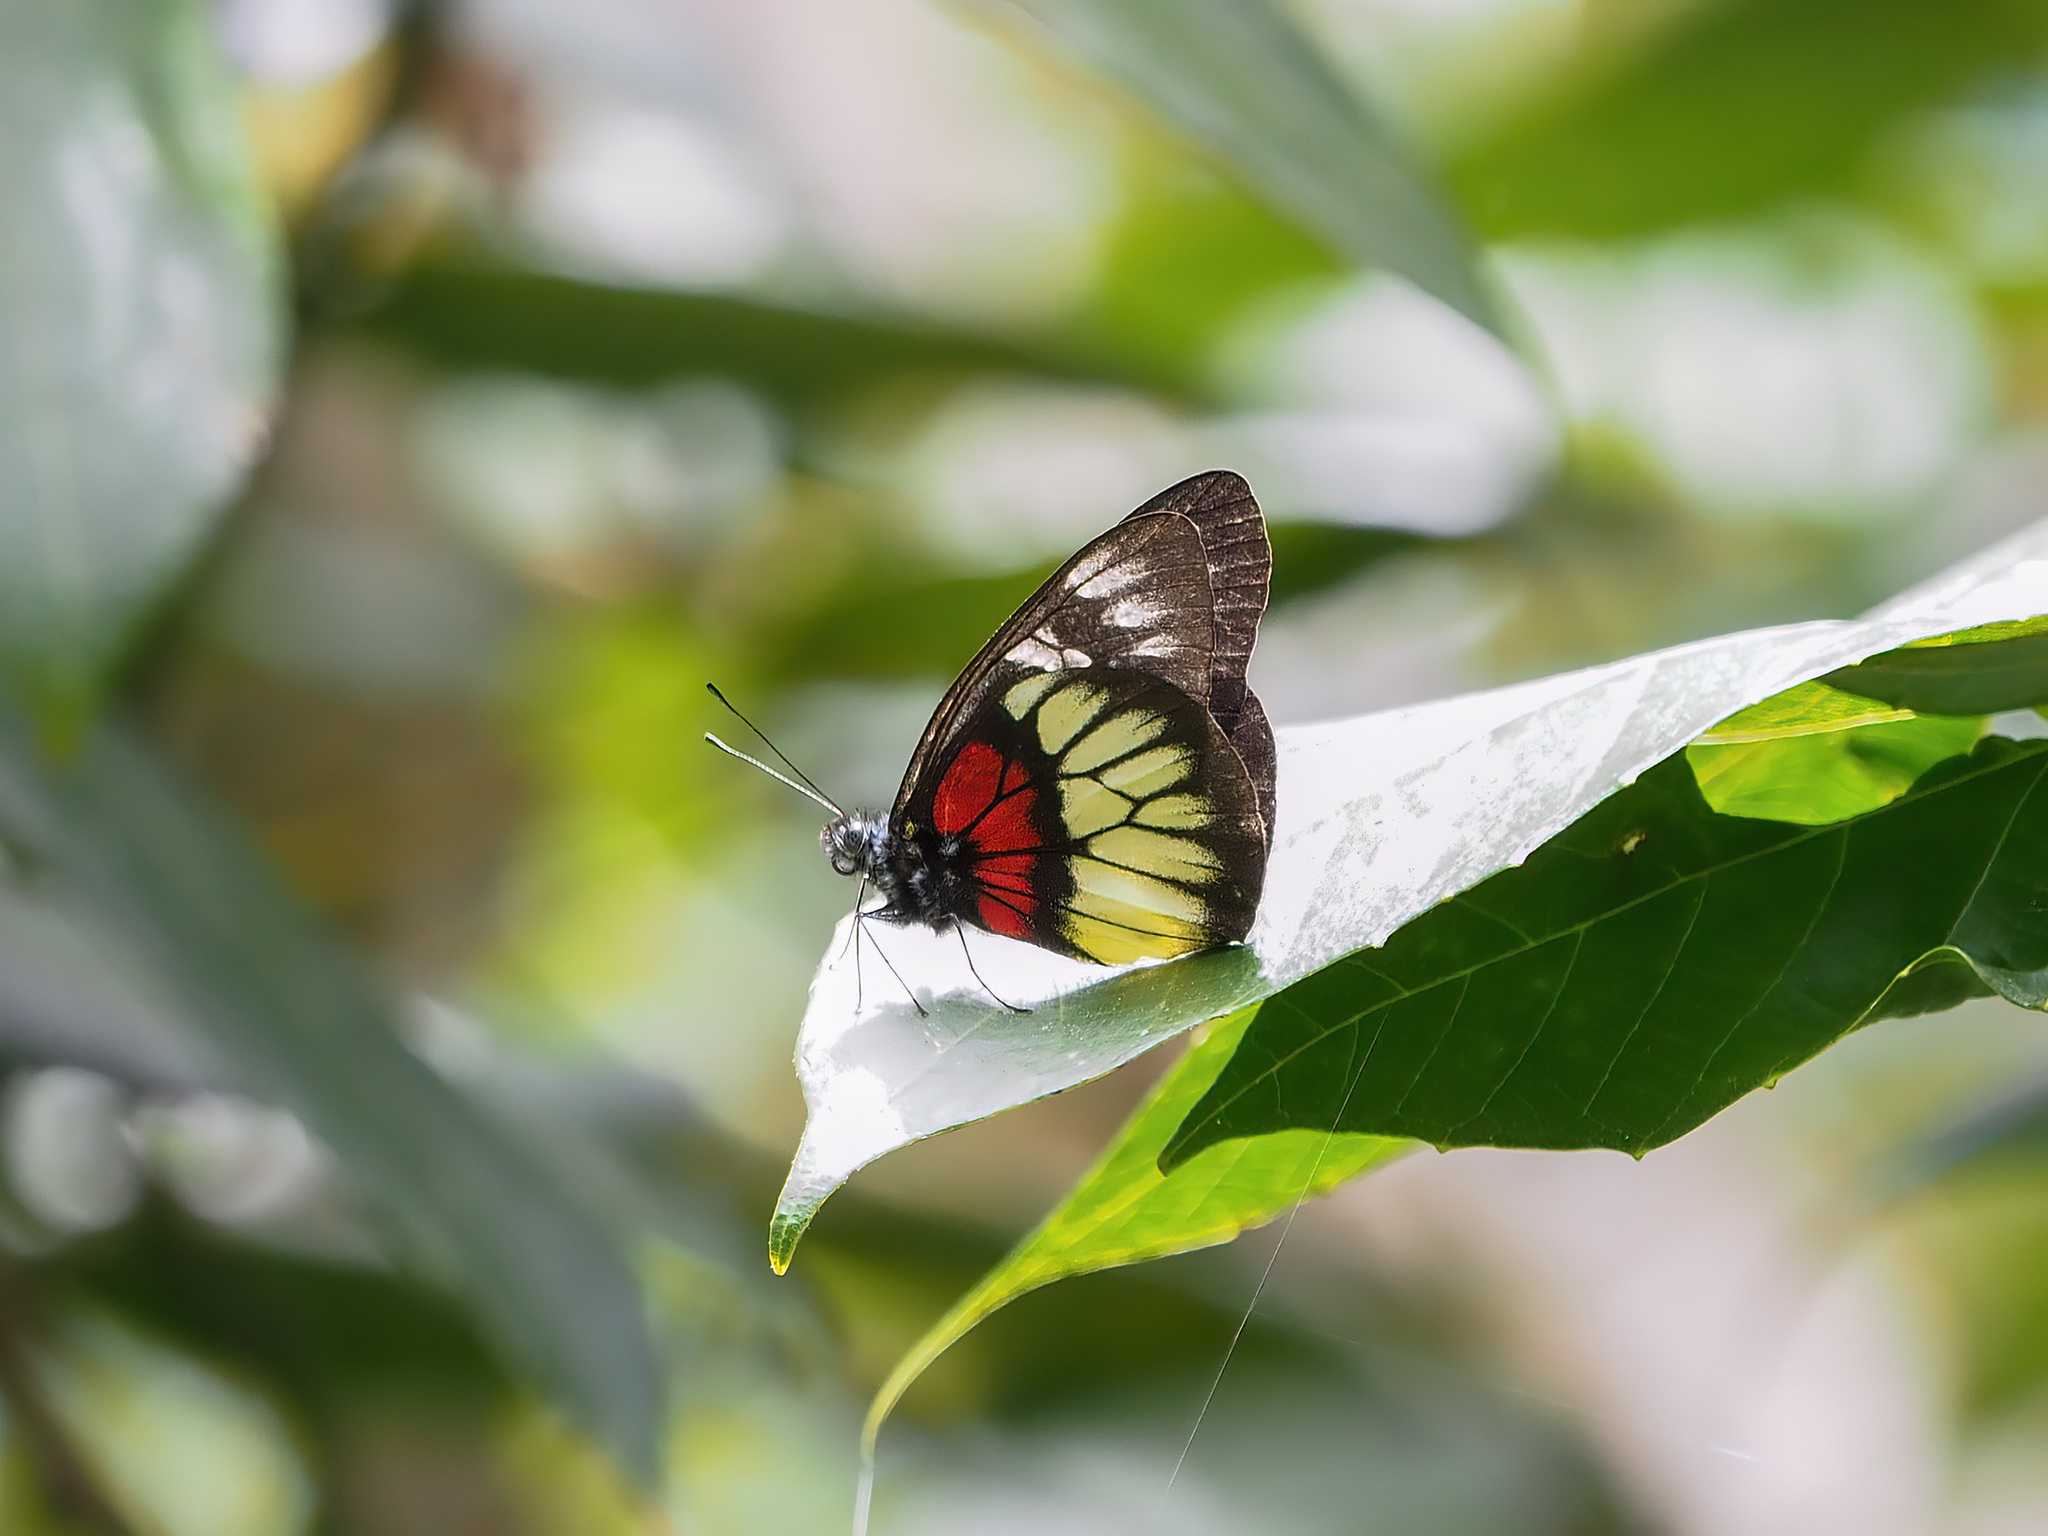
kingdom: Animalia
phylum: Arthropoda
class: Insecta
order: Lepidoptera
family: Pieridae
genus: Delias
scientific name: Delias ninus
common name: Malayan jezebel
